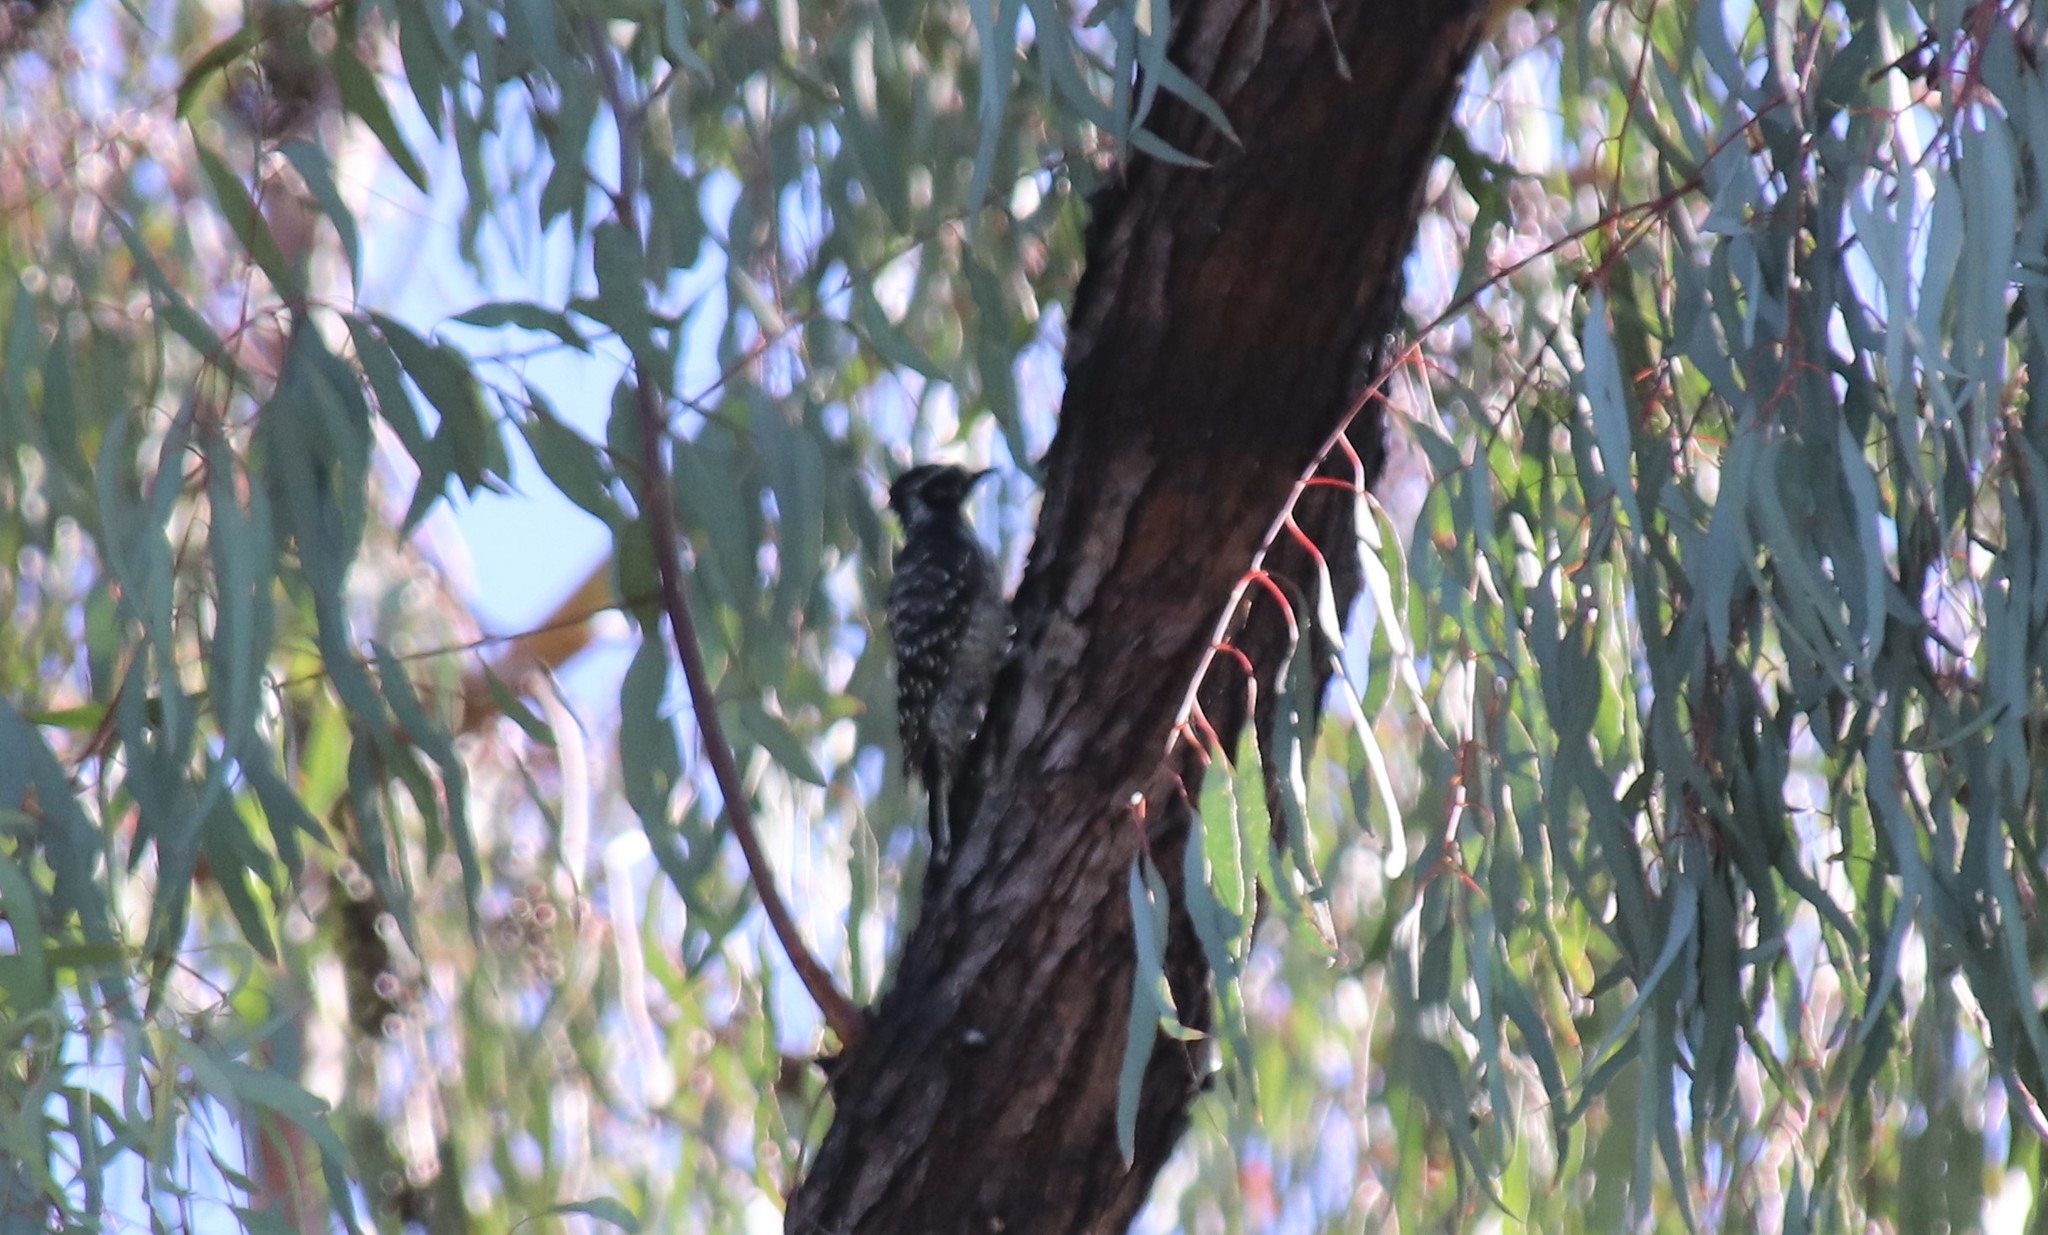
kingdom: Animalia
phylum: Chordata
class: Aves
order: Piciformes
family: Picidae
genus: Dryobates
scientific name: Dryobates nuttallii
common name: Nuttall's woodpecker
